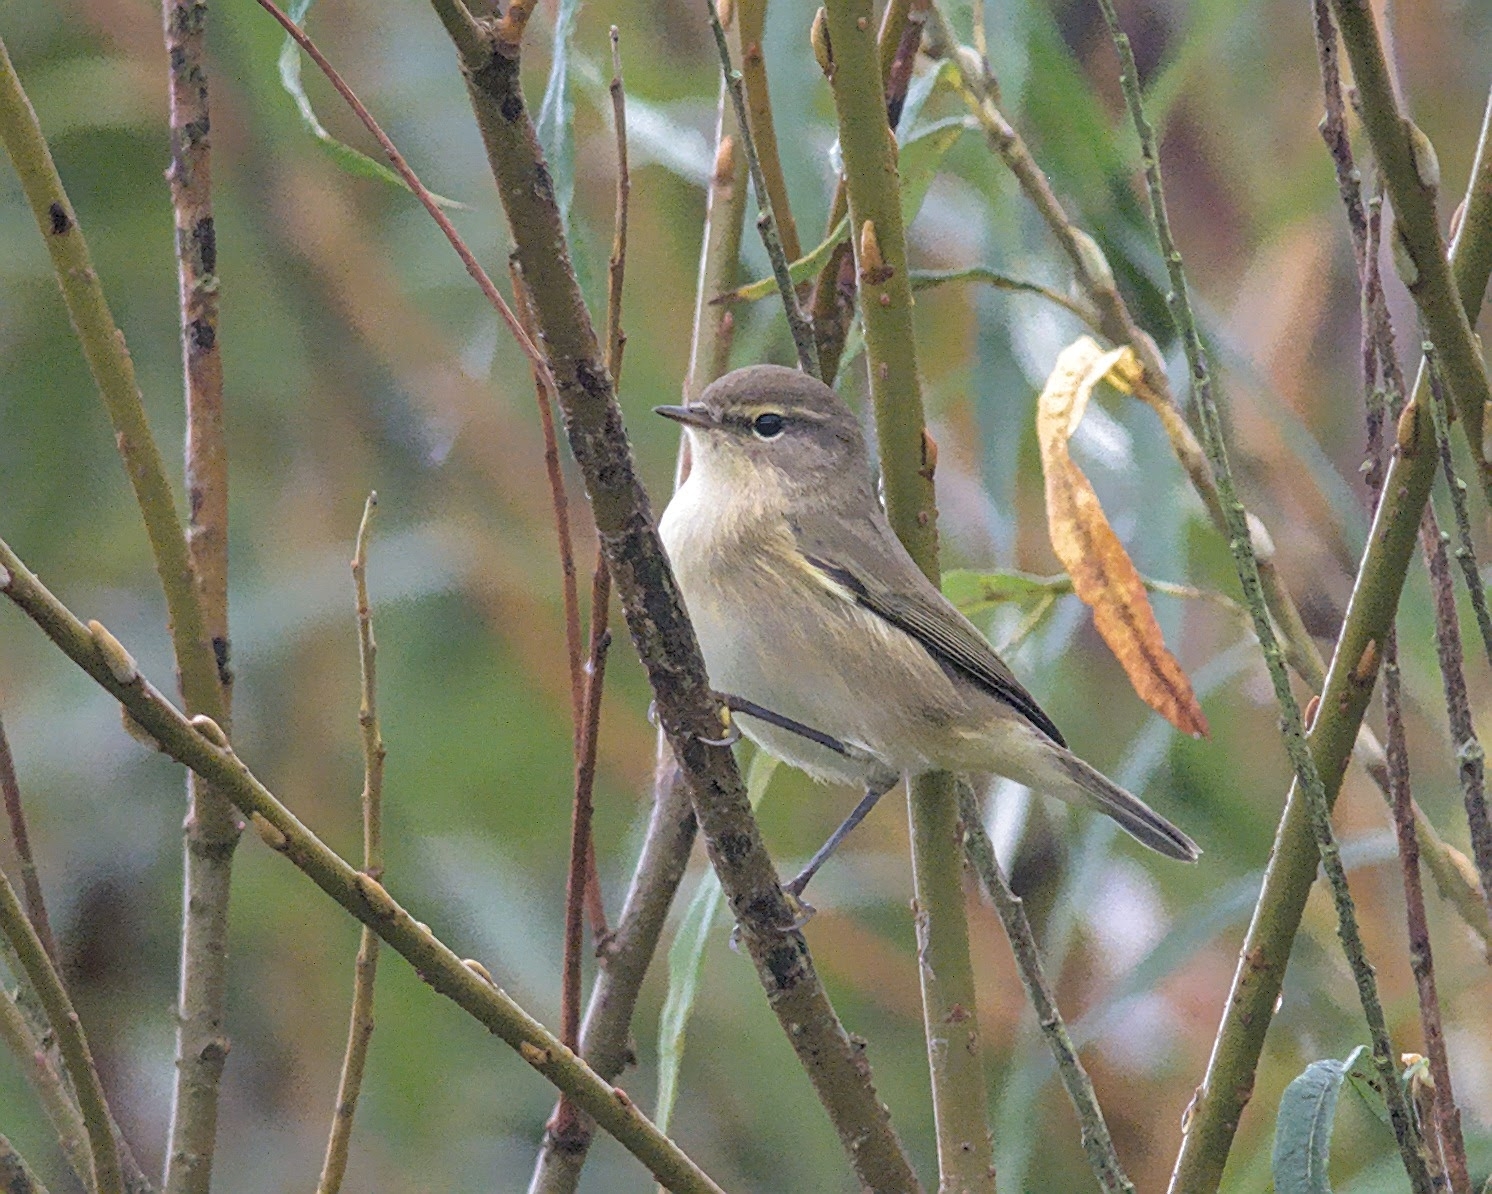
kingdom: Animalia
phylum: Chordata
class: Aves
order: Passeriformes
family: Phylloscopidae
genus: Phylloscopus
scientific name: Phylloscopus collybita
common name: Common chiffchaff
